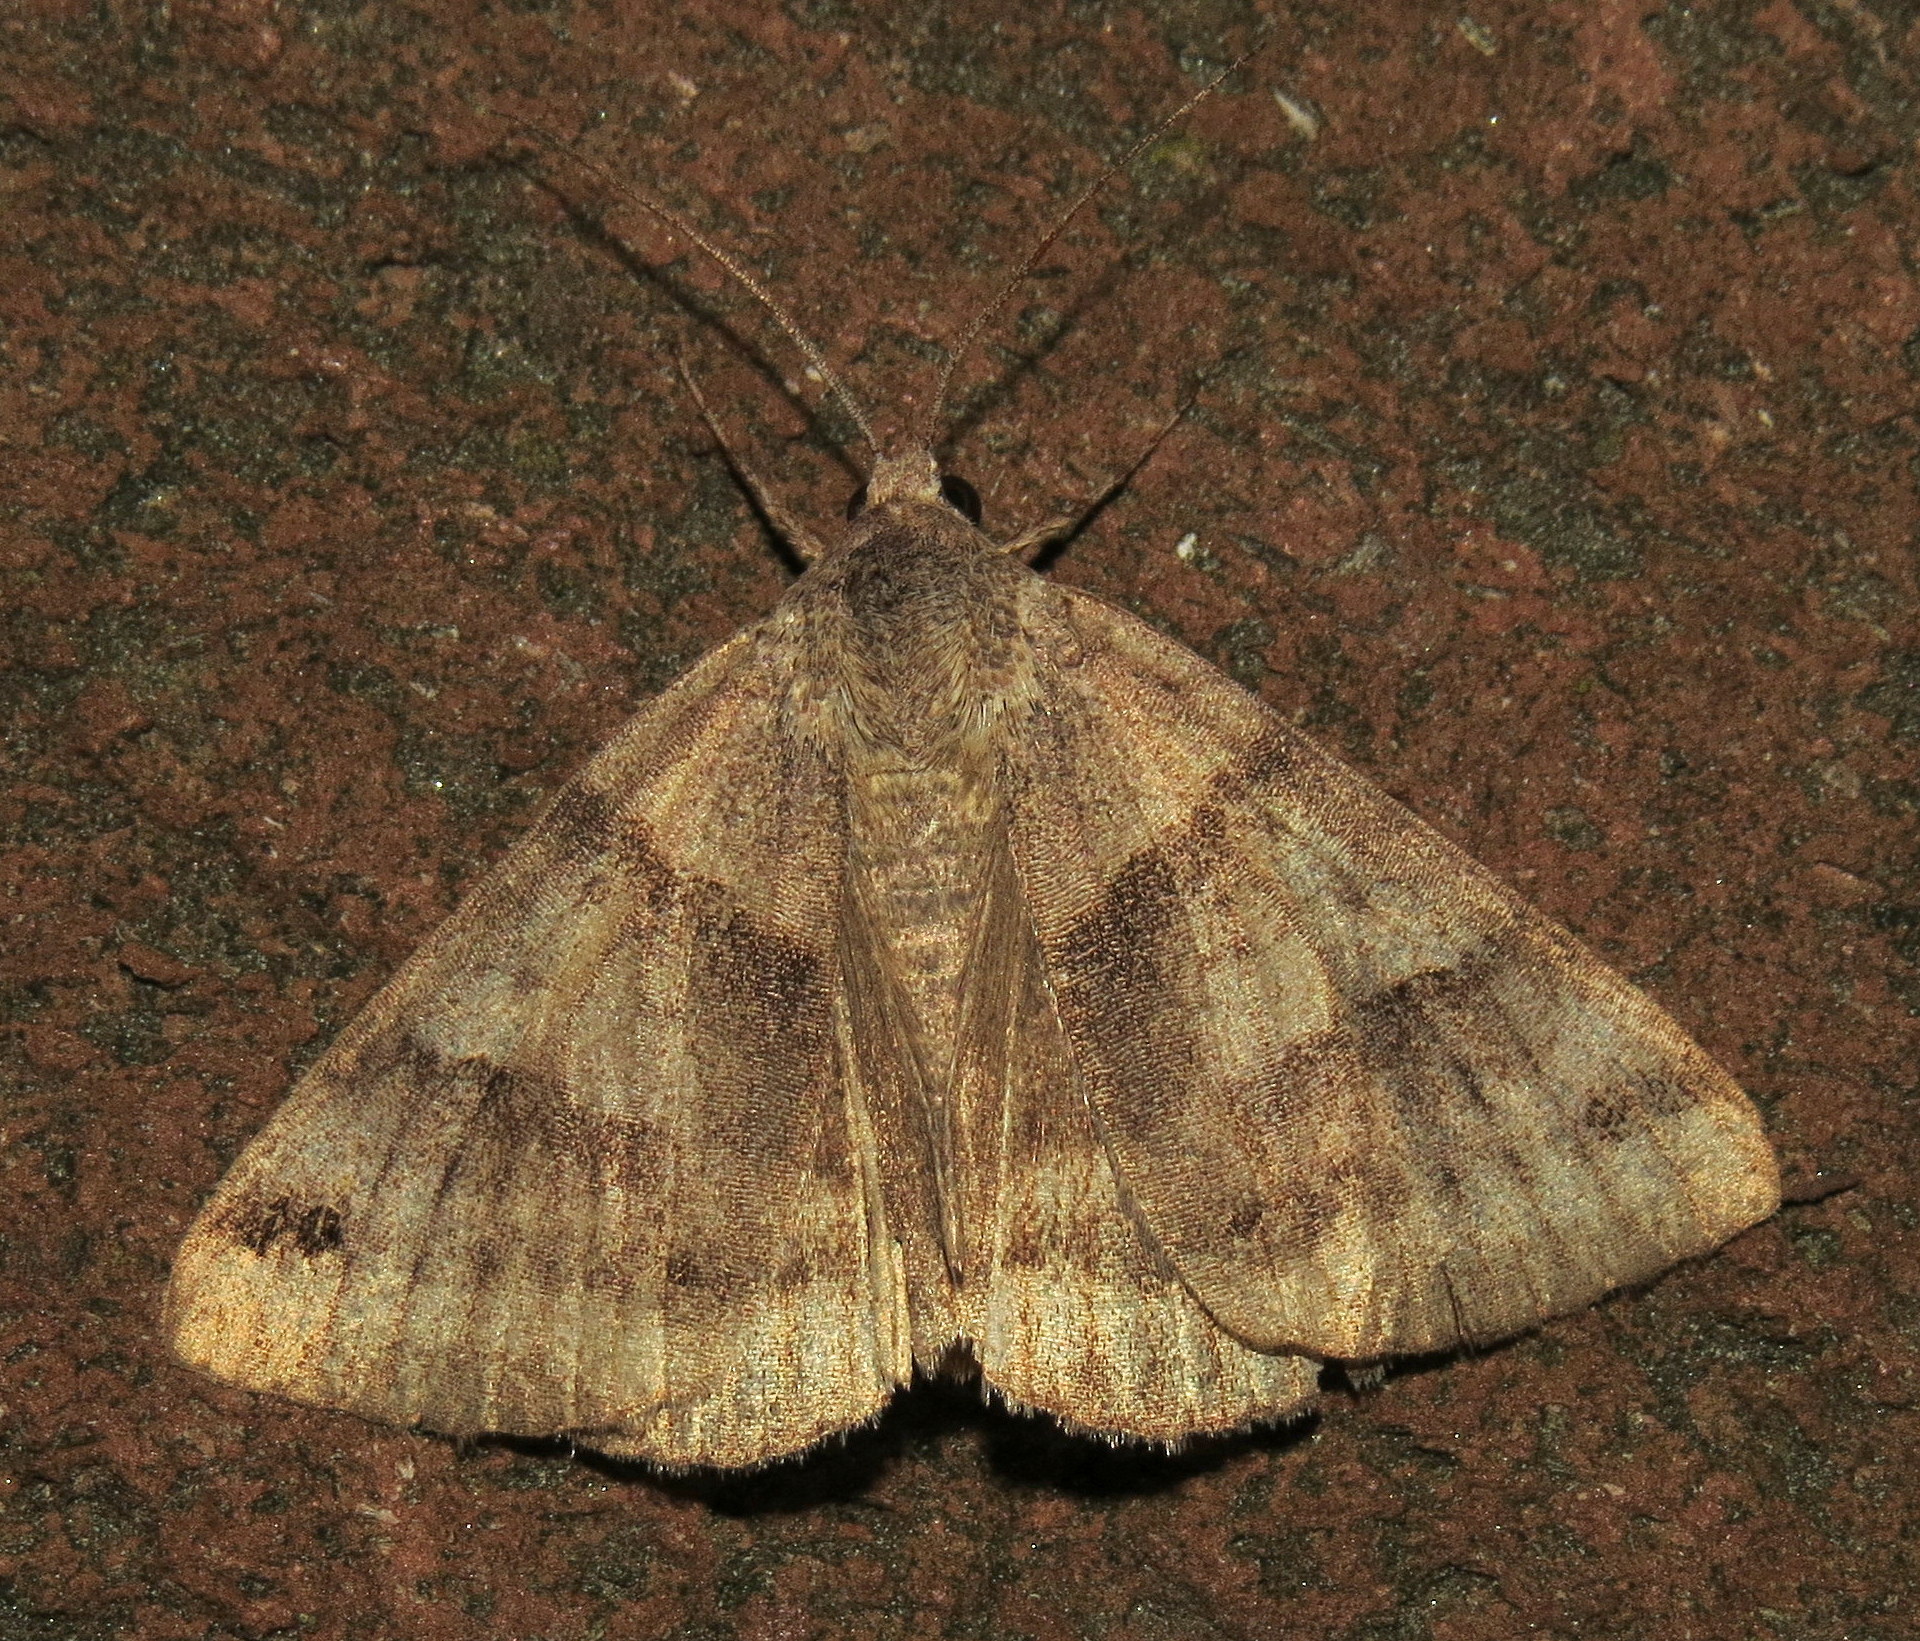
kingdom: Animalia
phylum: Arthropoda
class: Insecta
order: Lepidoptera
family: Erebidae
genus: Caenurgina
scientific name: Caenurgina crassiuscula
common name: Double-barred
